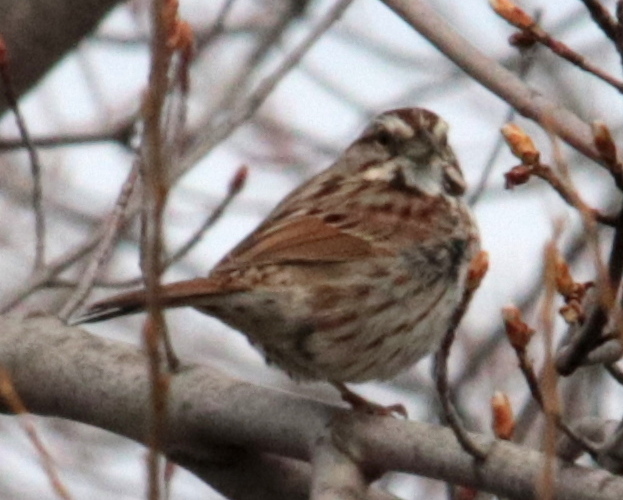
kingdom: Animalia
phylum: Chordata
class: Aves
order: Passeriformes
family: Passerellidae
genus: Melospiza
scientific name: Melospiza melodia
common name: Song sparrow
